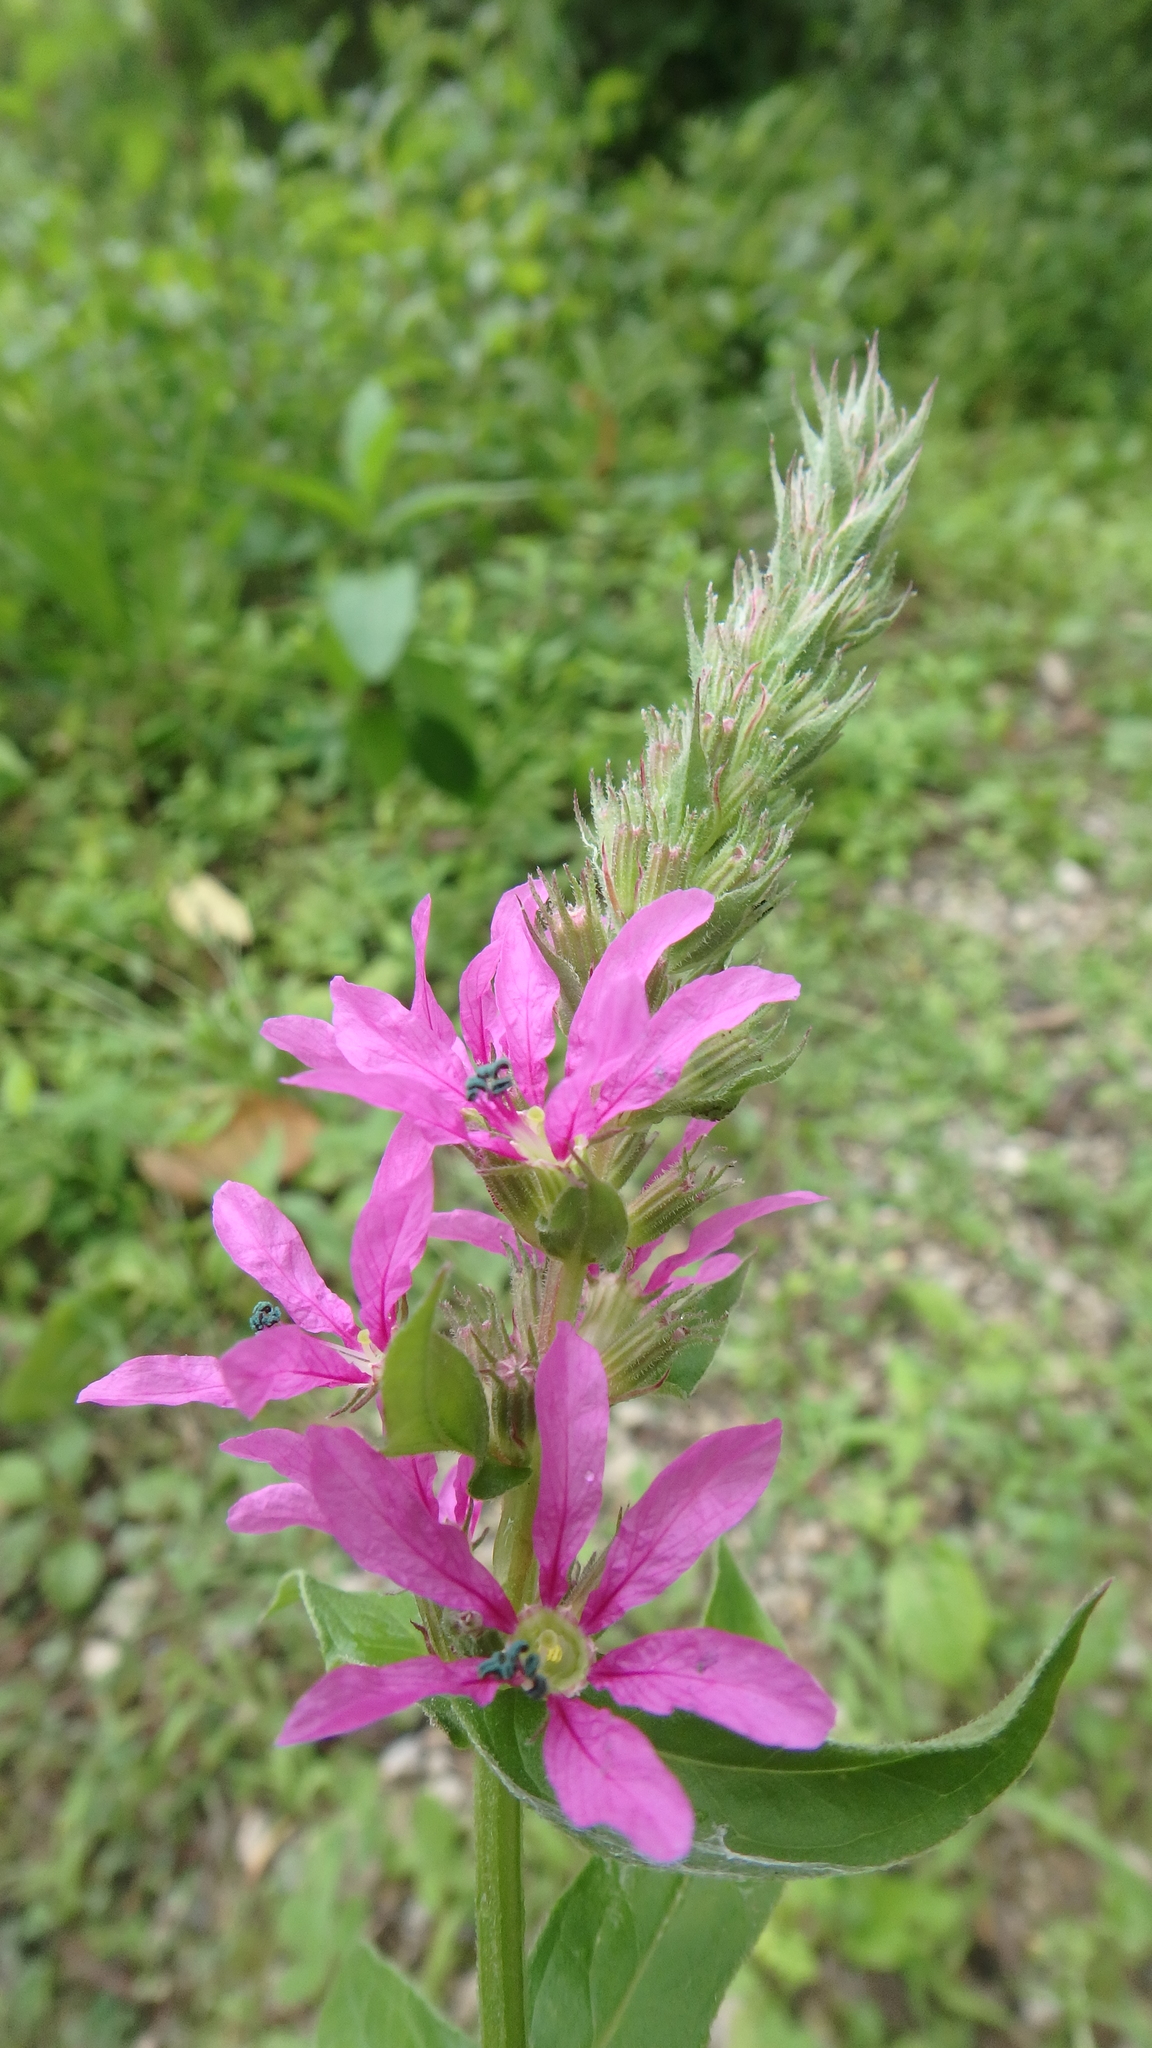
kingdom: Plantae
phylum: Tracheophyta
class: Magnoliopsida
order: Myrtales
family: Lythraceae
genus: Lythrum
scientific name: Lythrum salicaria
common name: Purple loosestrife
